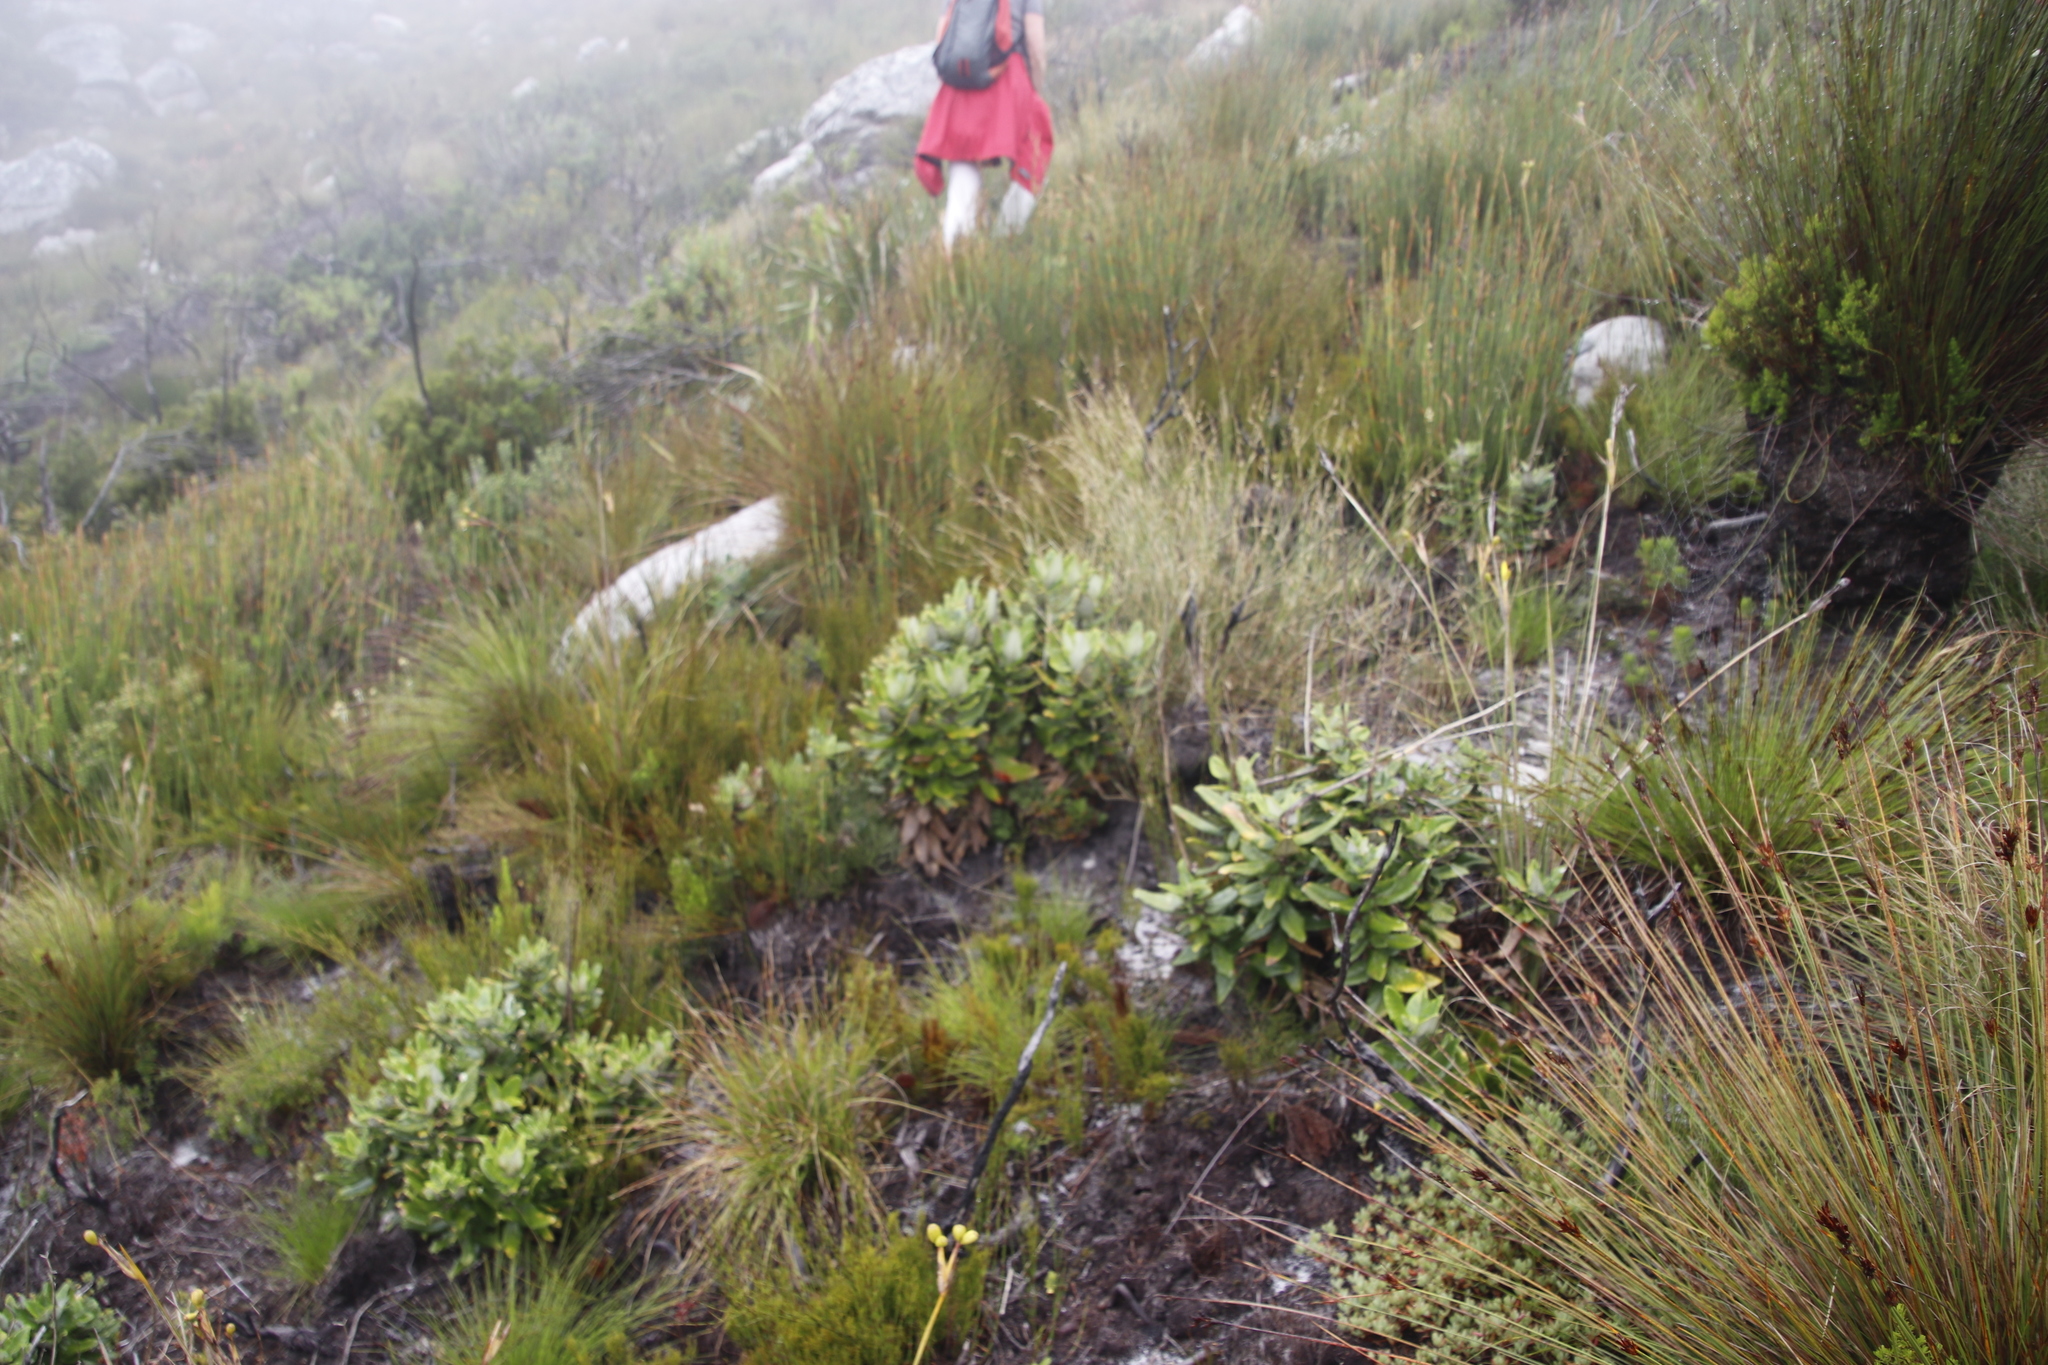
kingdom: Plantae
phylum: Tracheophyta
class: Magnoliopsida
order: Apiales
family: Apiaceae
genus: Hermas
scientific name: Hermas villosa
